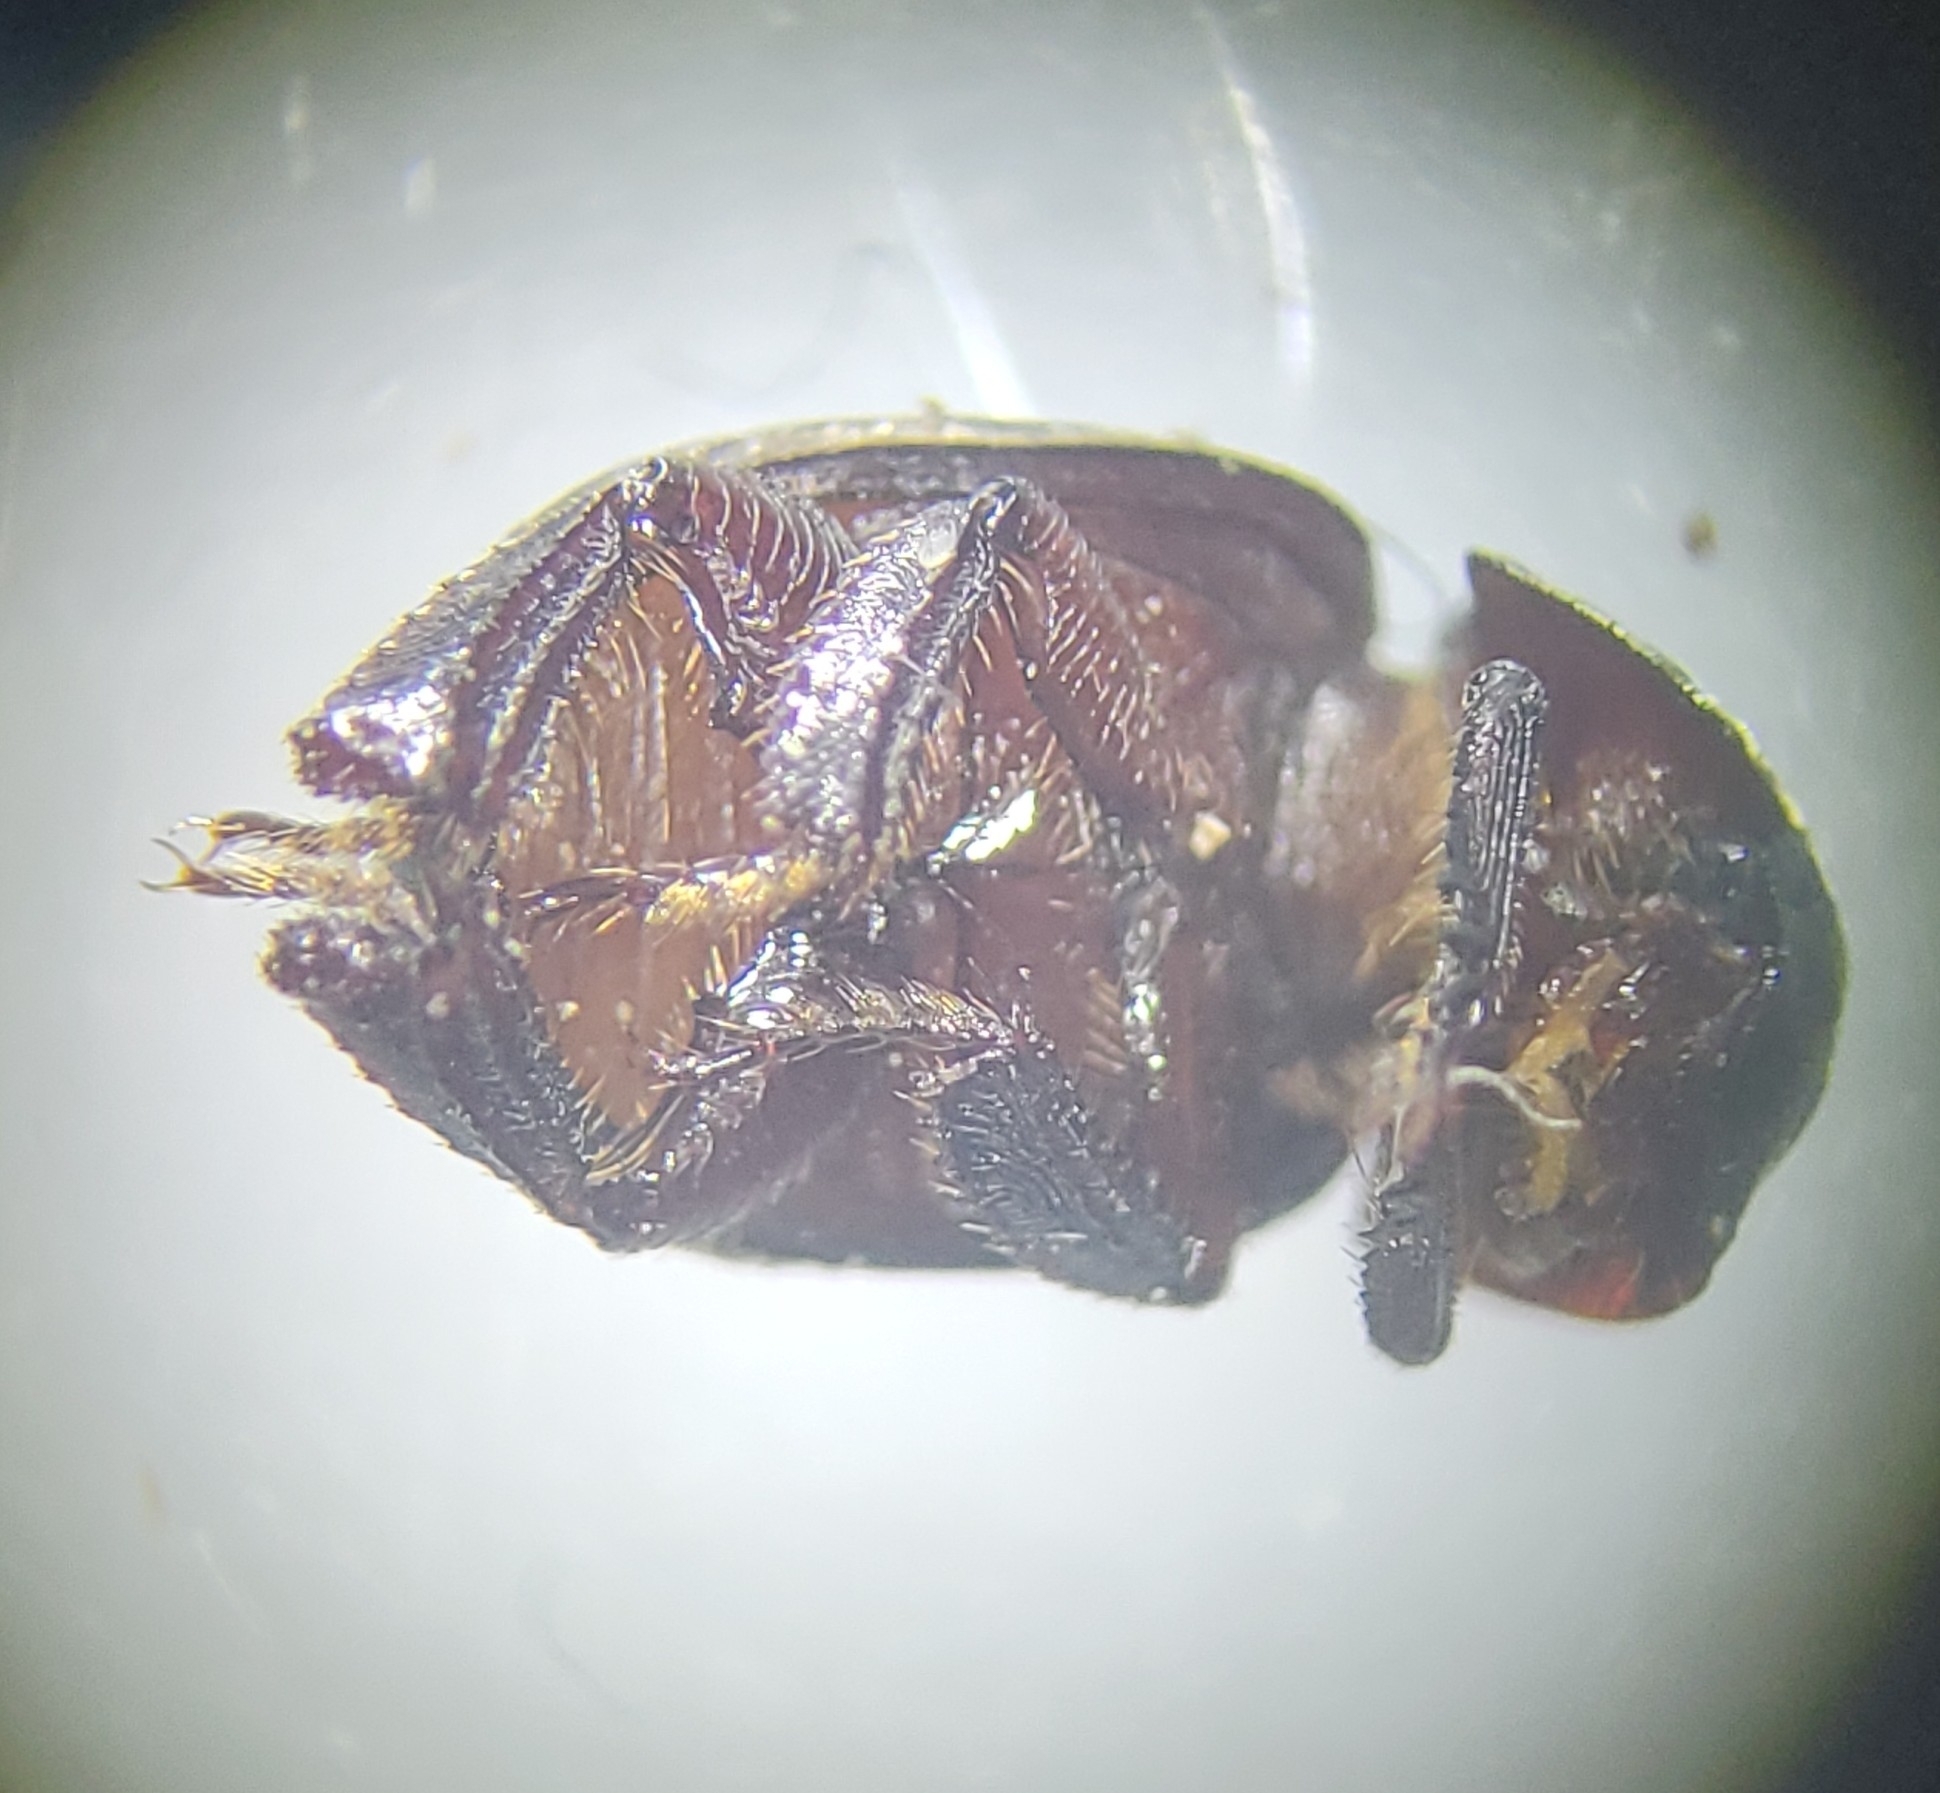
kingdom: Animalia
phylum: Arthropoda
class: Insecta
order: Coleoptera
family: Hybosoridae
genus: Germarostes
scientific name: Germarostes aphodioides
